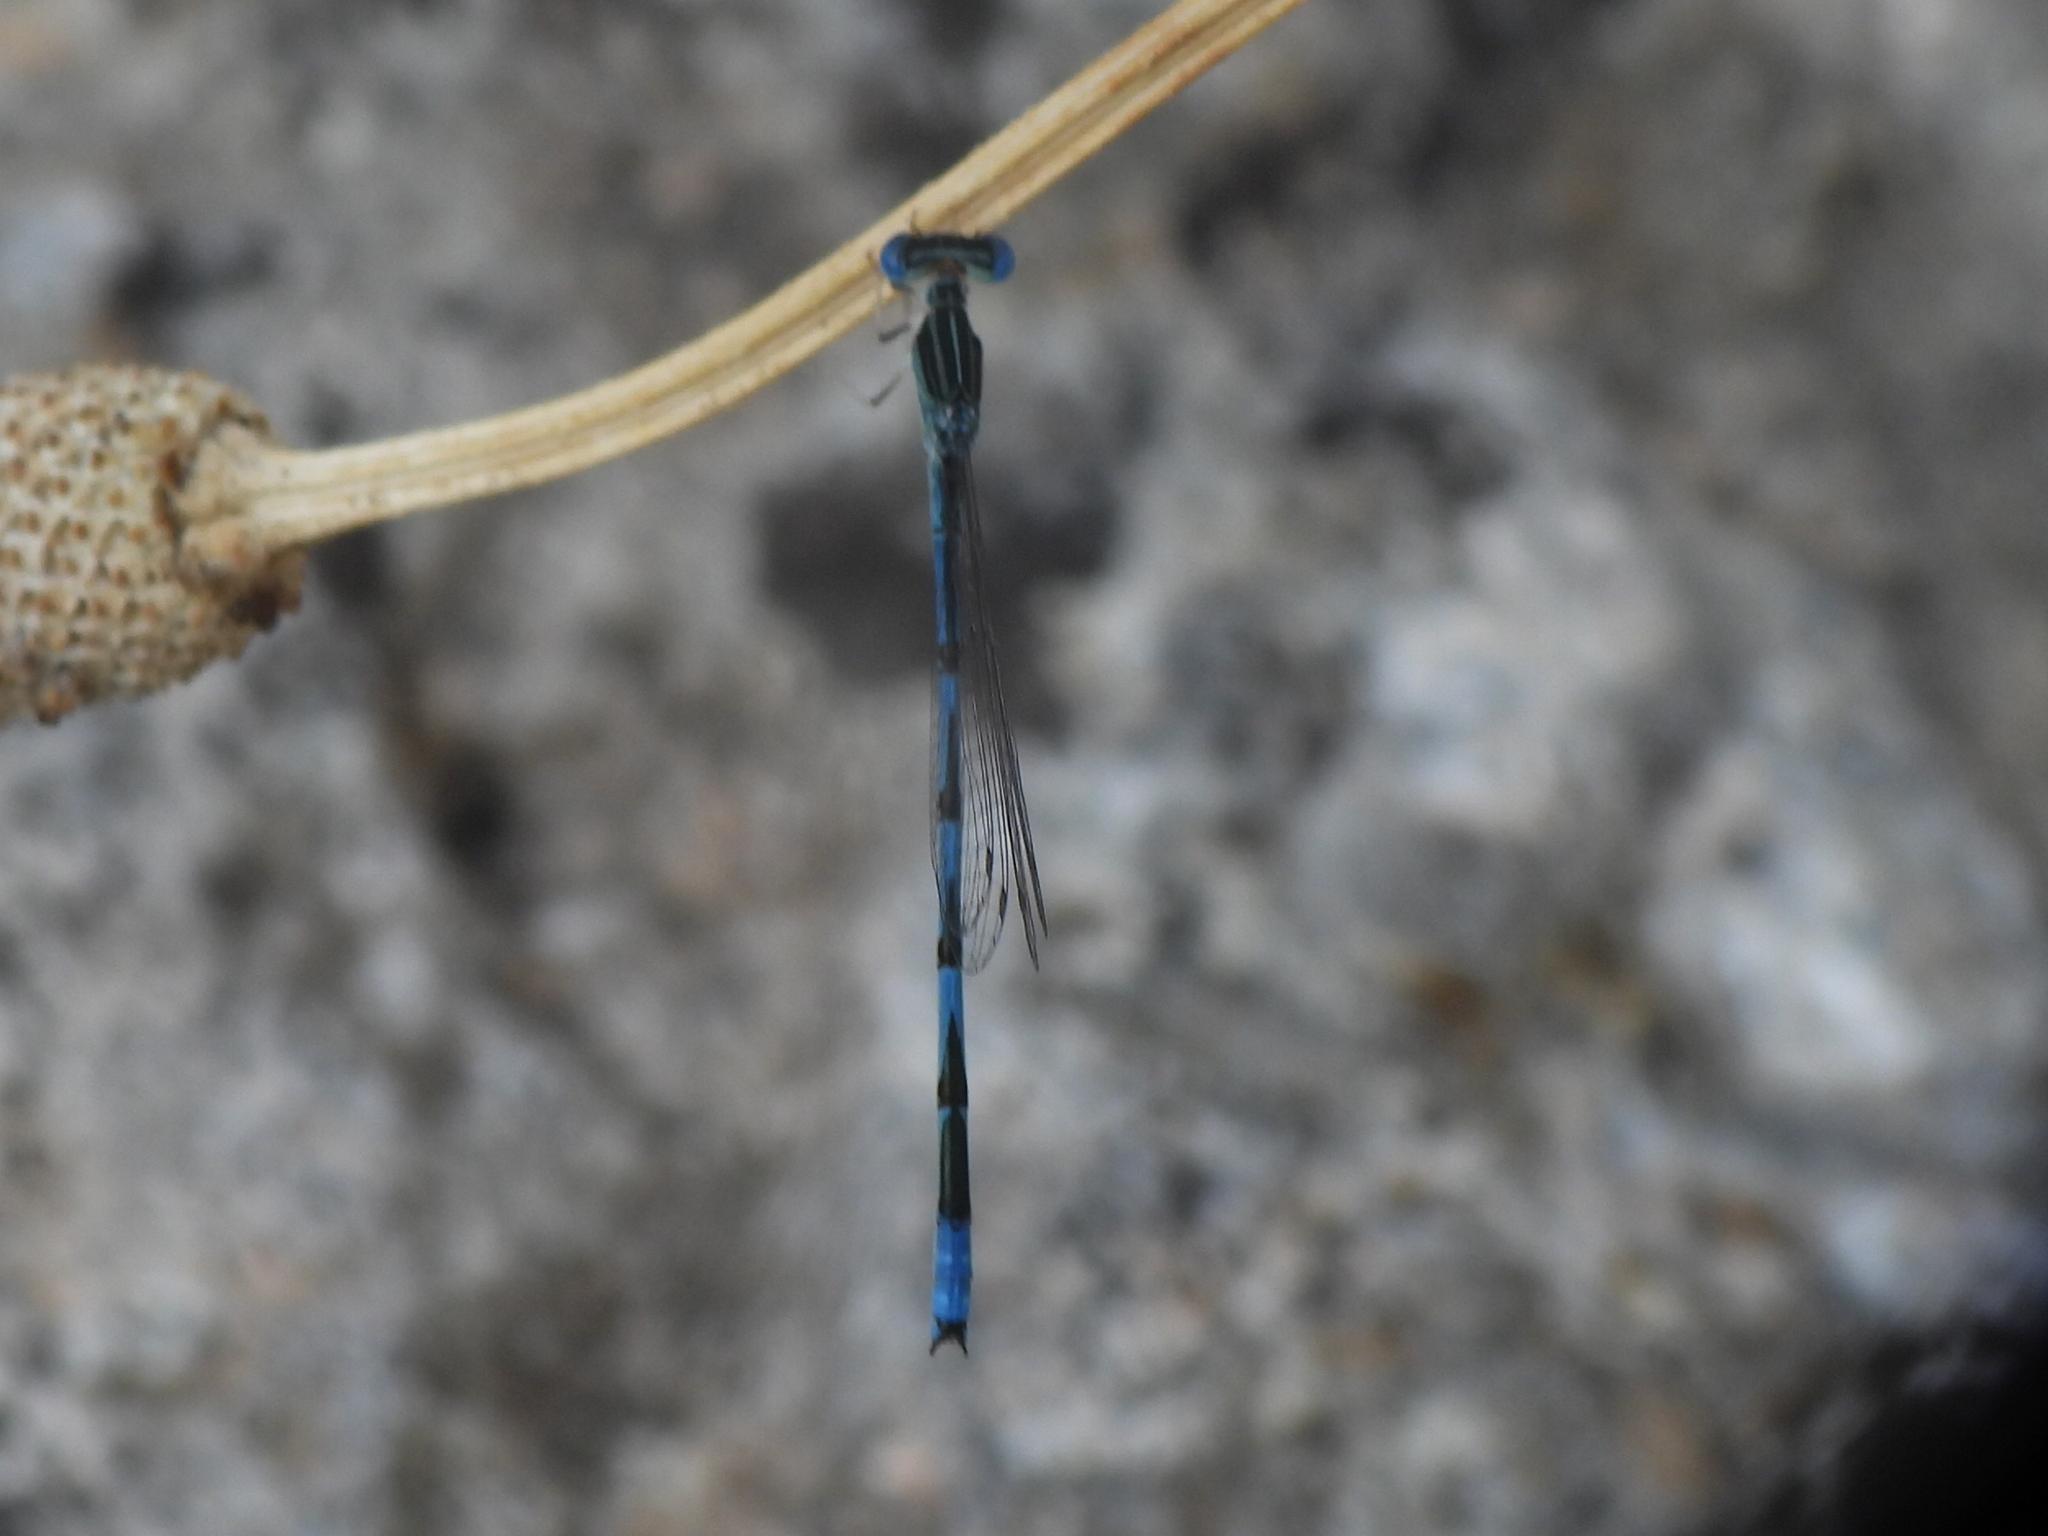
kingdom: Animalia
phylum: Arthropoda
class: Insecta
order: Odonata
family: Coenagrionidae
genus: Enallagma
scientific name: Enallagma basidens
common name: Double-striped bluet
